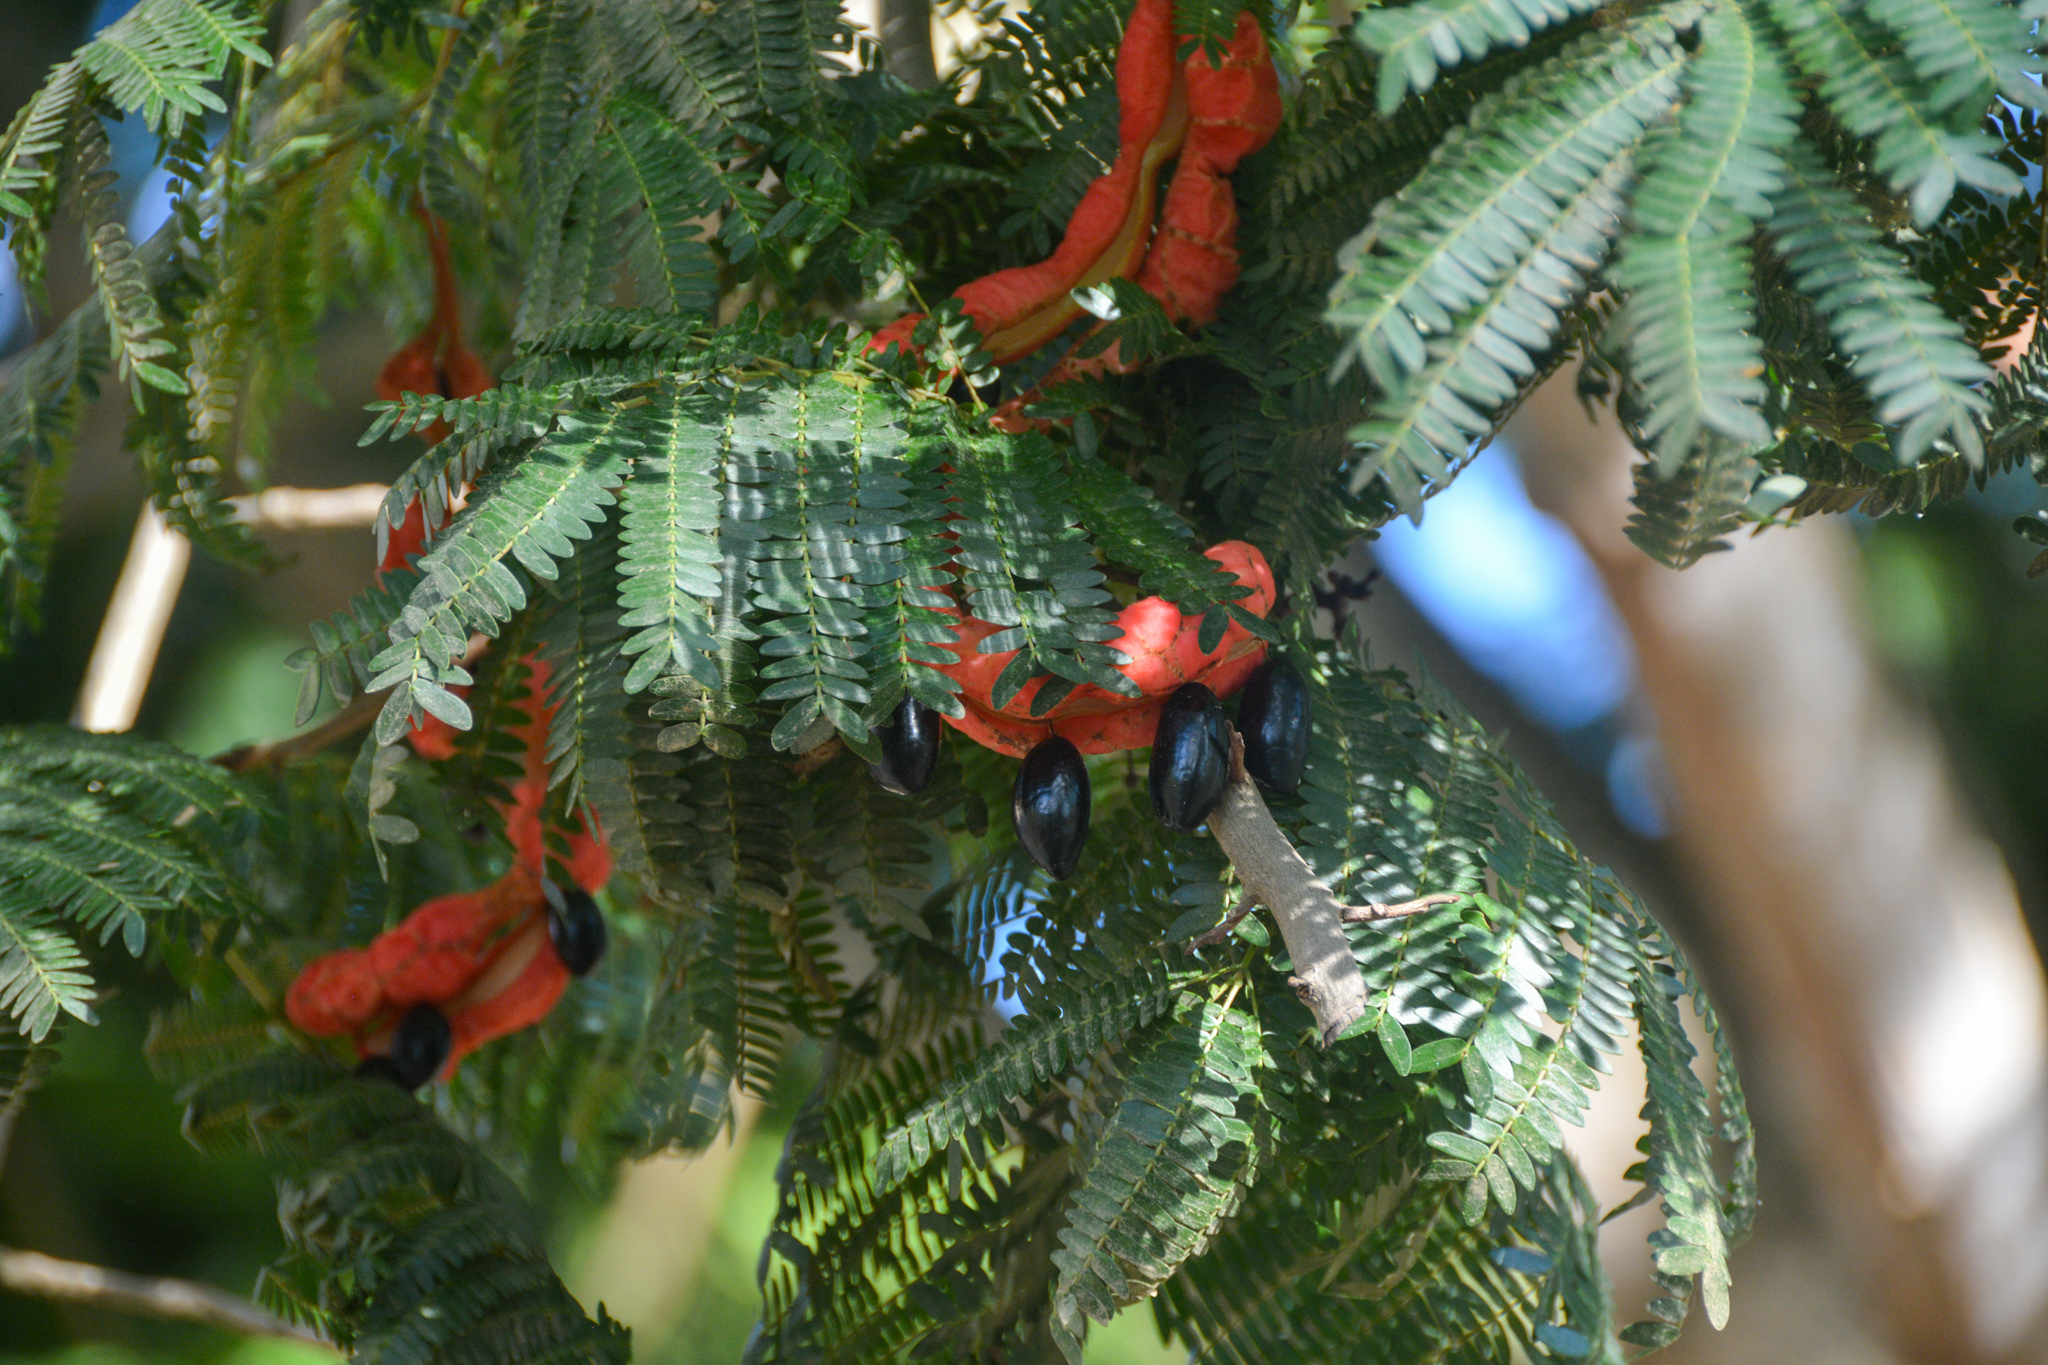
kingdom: Plantae
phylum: Tracheophyta
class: Magnoliopsida
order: Fabales
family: Fabaceae
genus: Cojoba
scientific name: Cojoba arborea
